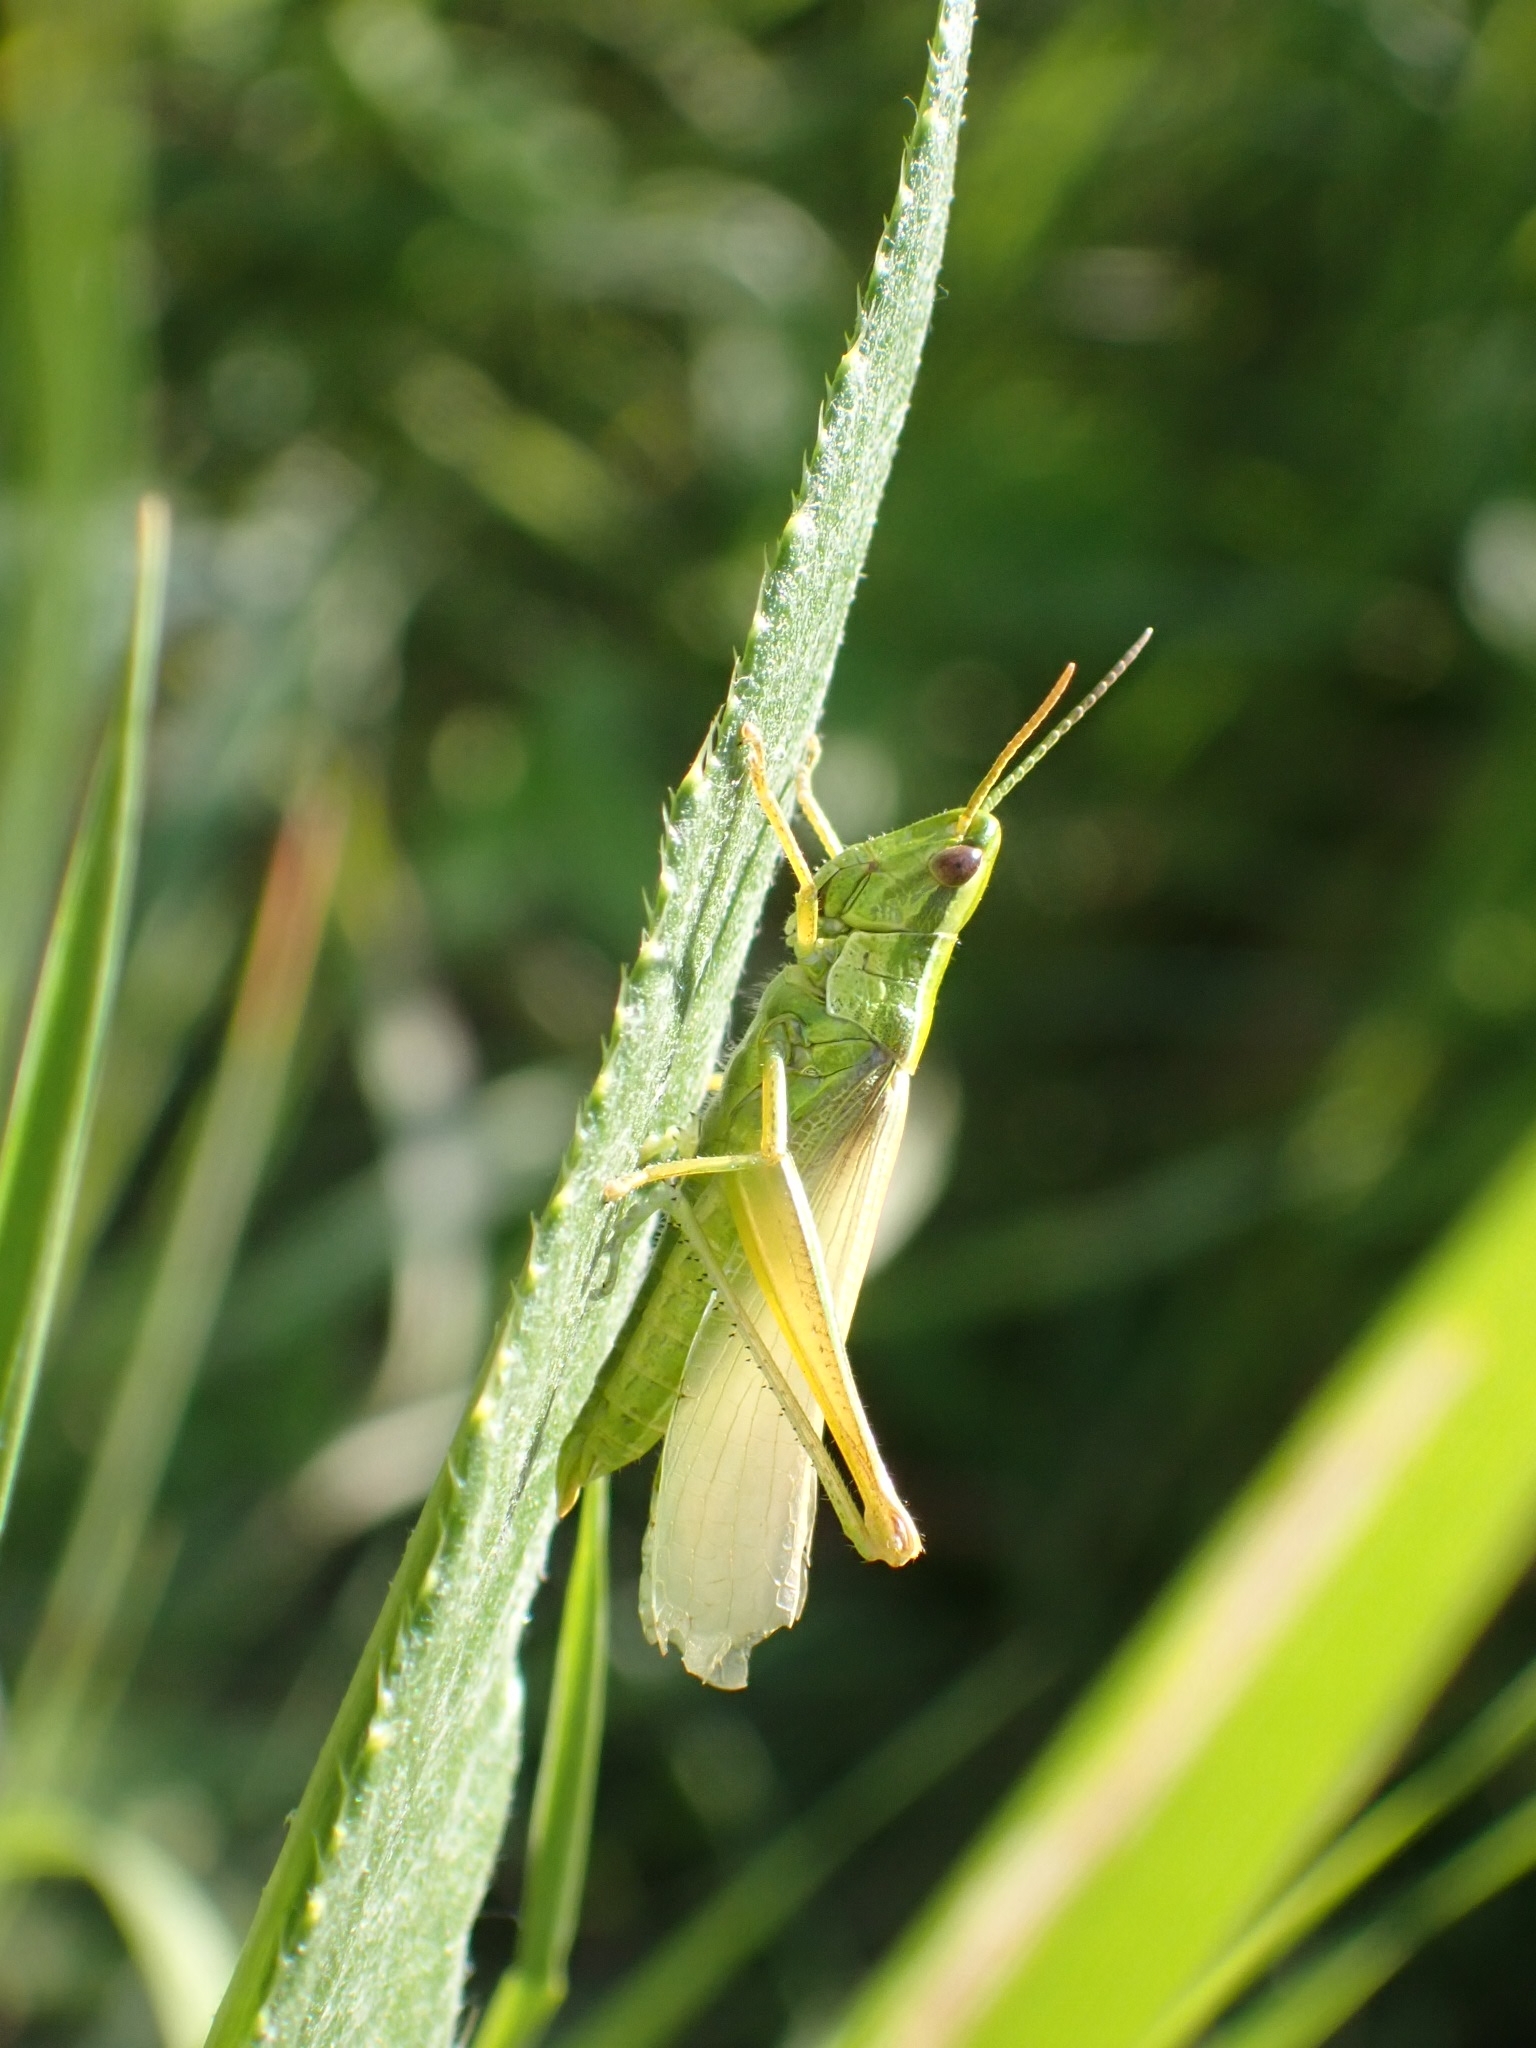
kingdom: Animalia
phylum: Arthropoda
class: Insecta
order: Orthoptera
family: Acrididae
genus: Euthystira
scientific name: Euthystira brachyptera
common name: Small gold grasshopper
